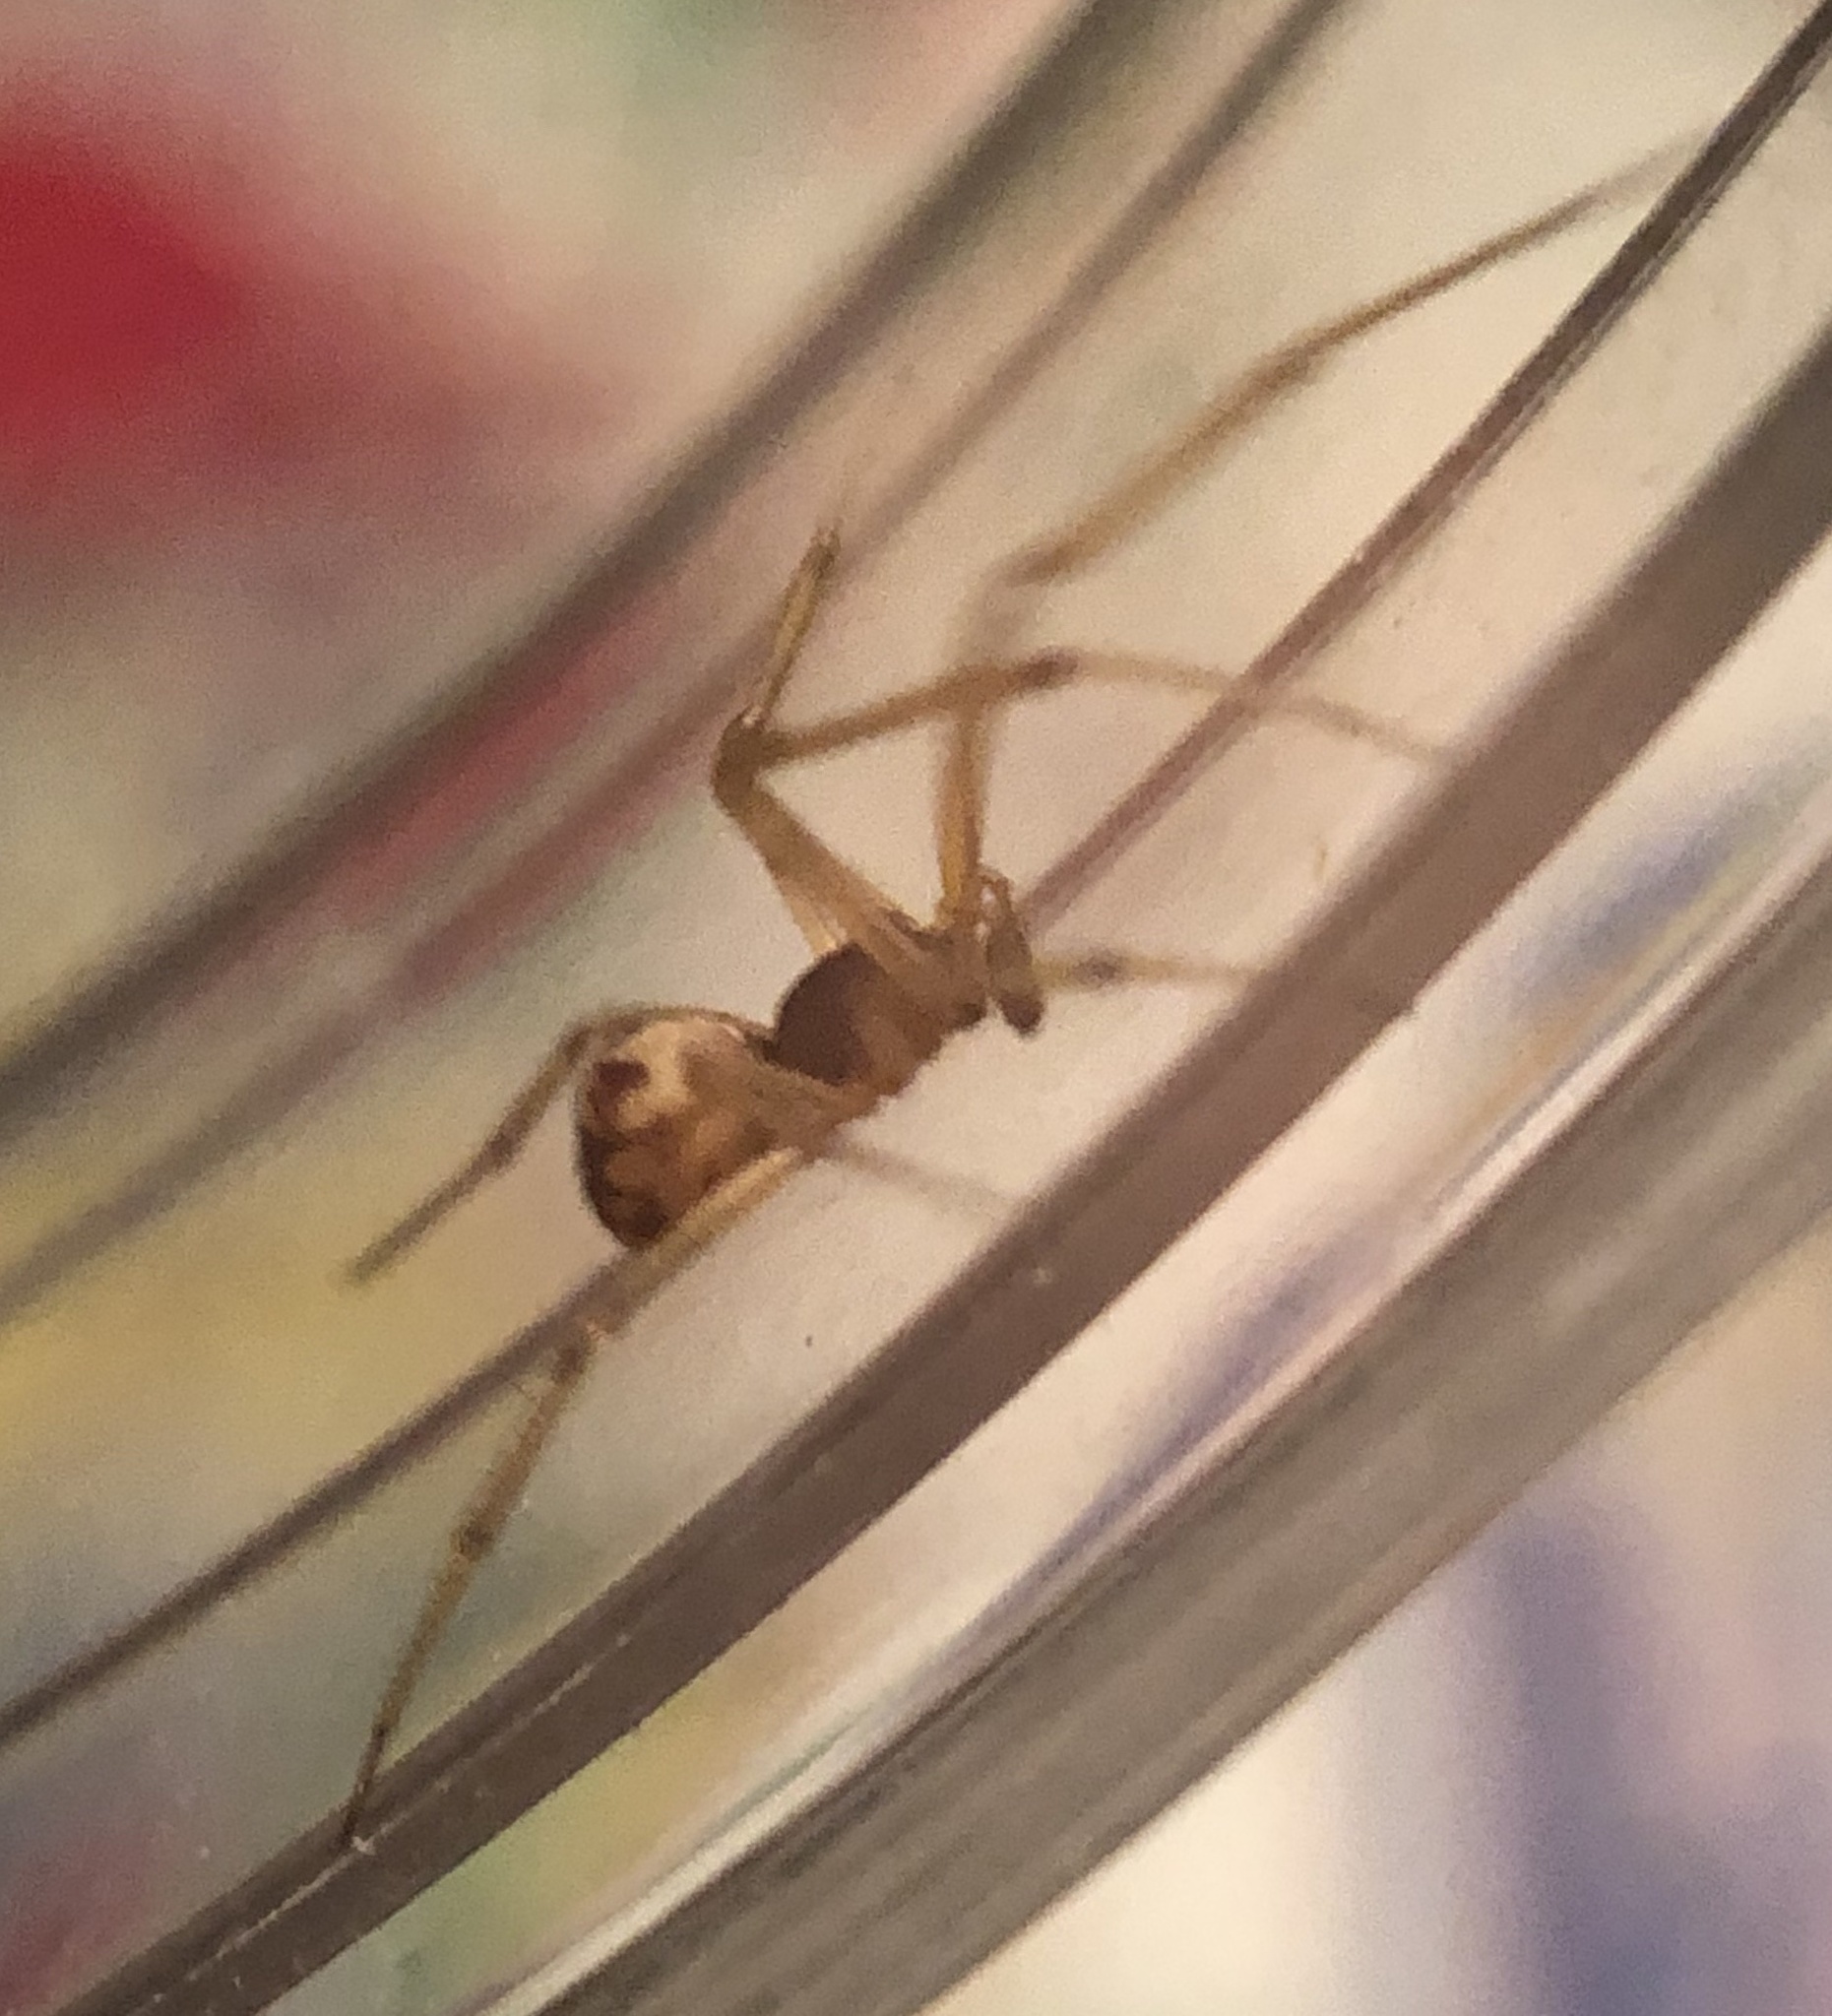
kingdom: Animalia
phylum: Arthropoda
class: Arachnida
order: Araneae
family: Theridiidae
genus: Steatoda
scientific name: Steatoda triangulosa
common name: Triangulate bud spider
